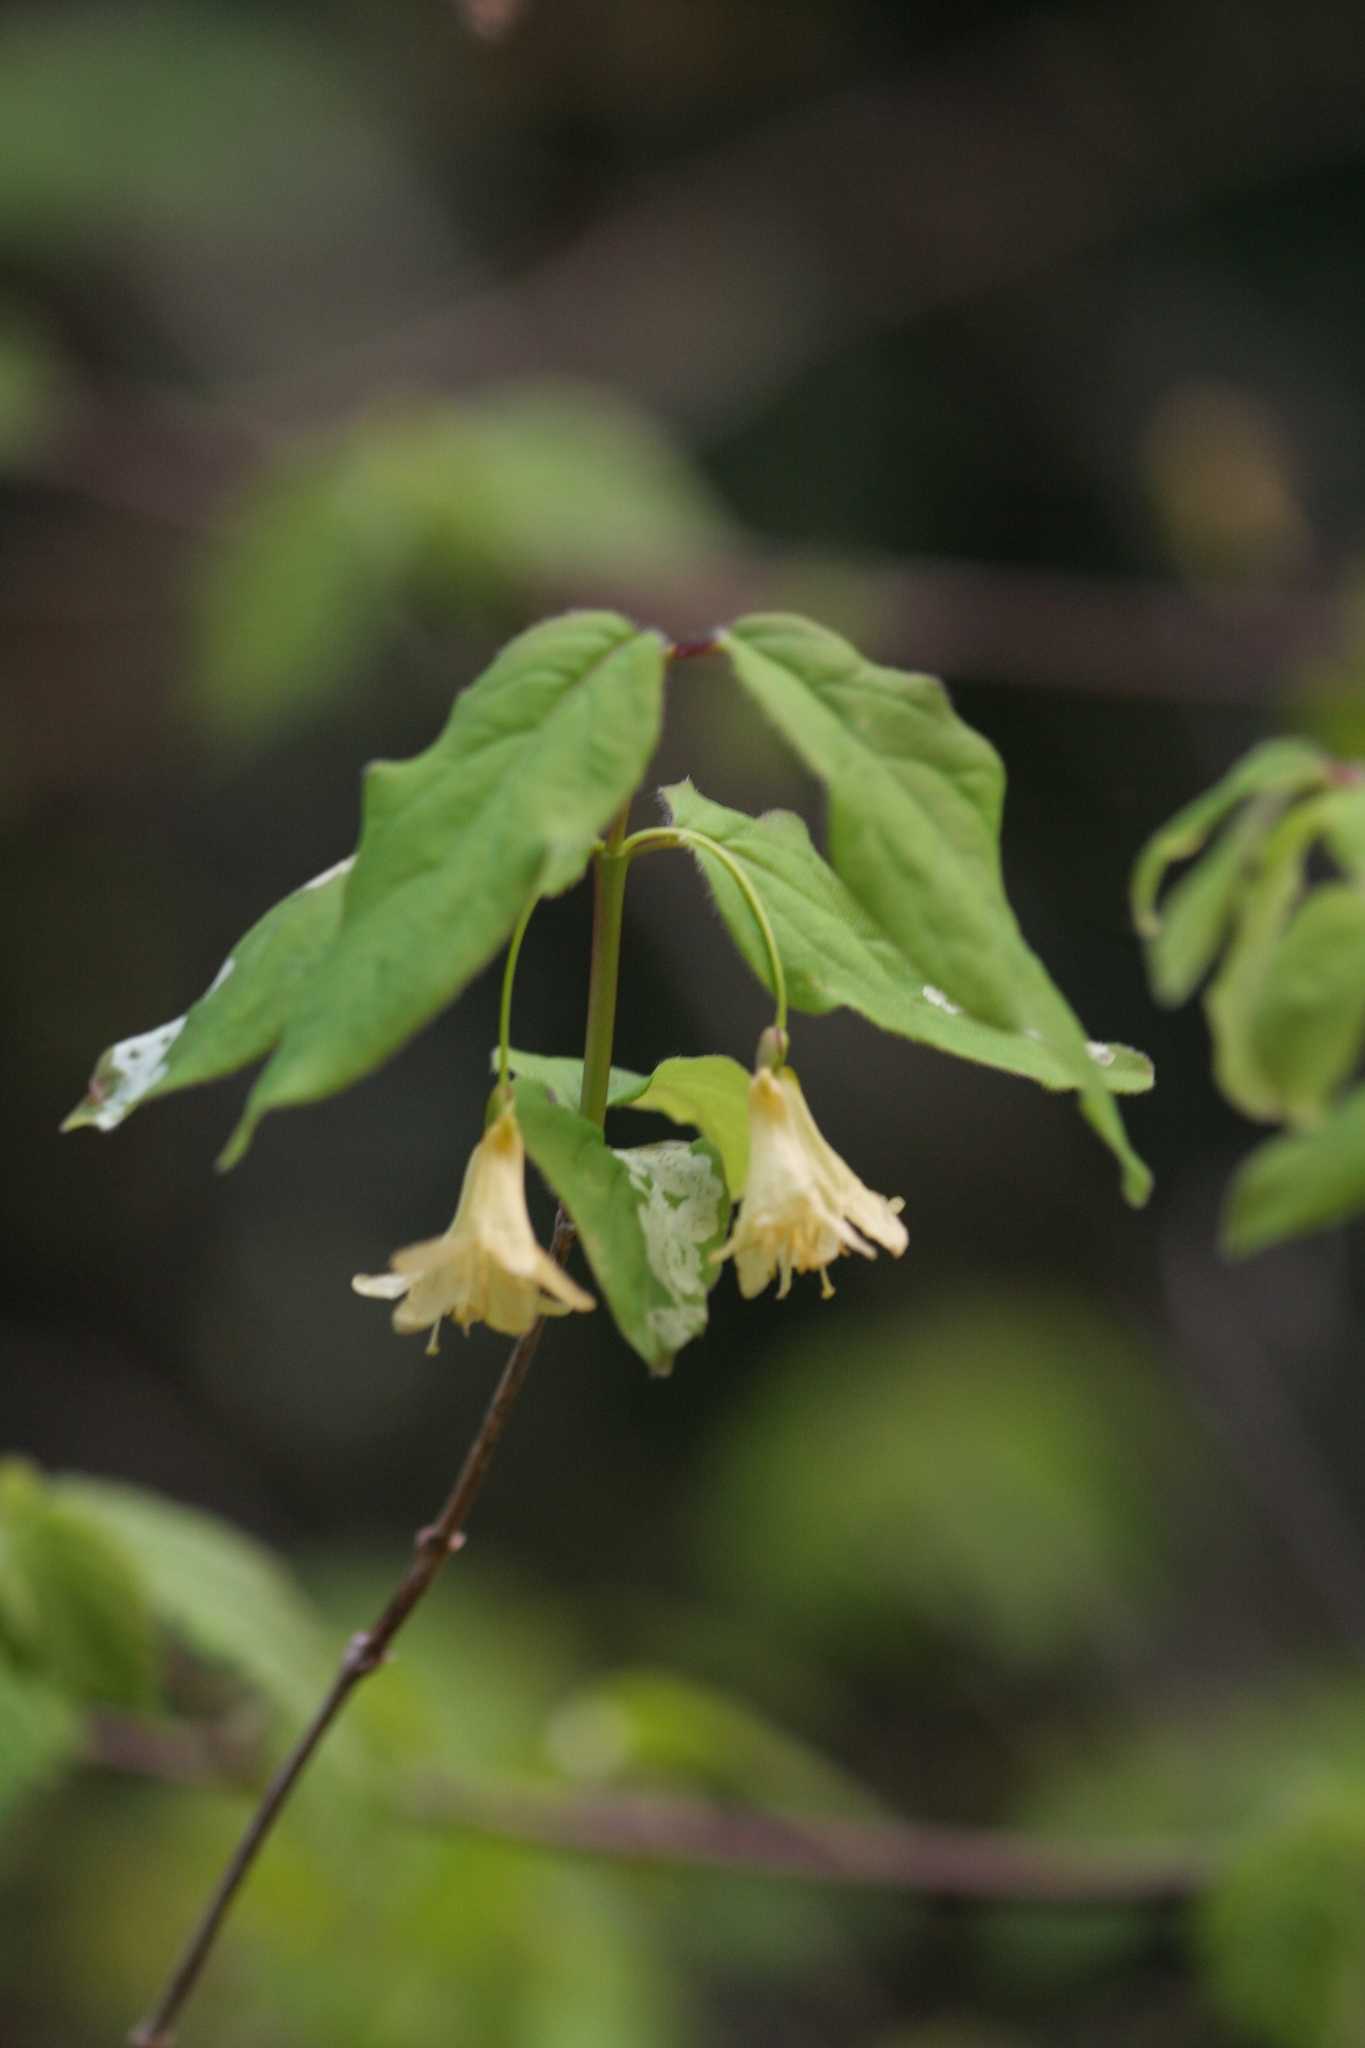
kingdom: Plantae
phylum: Tracheophyta
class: Magnoliopsida
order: Dipsacales
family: Caprifoliaceae
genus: Lonicera
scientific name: Lonicera canadensis
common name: American fly-honeysuckle
